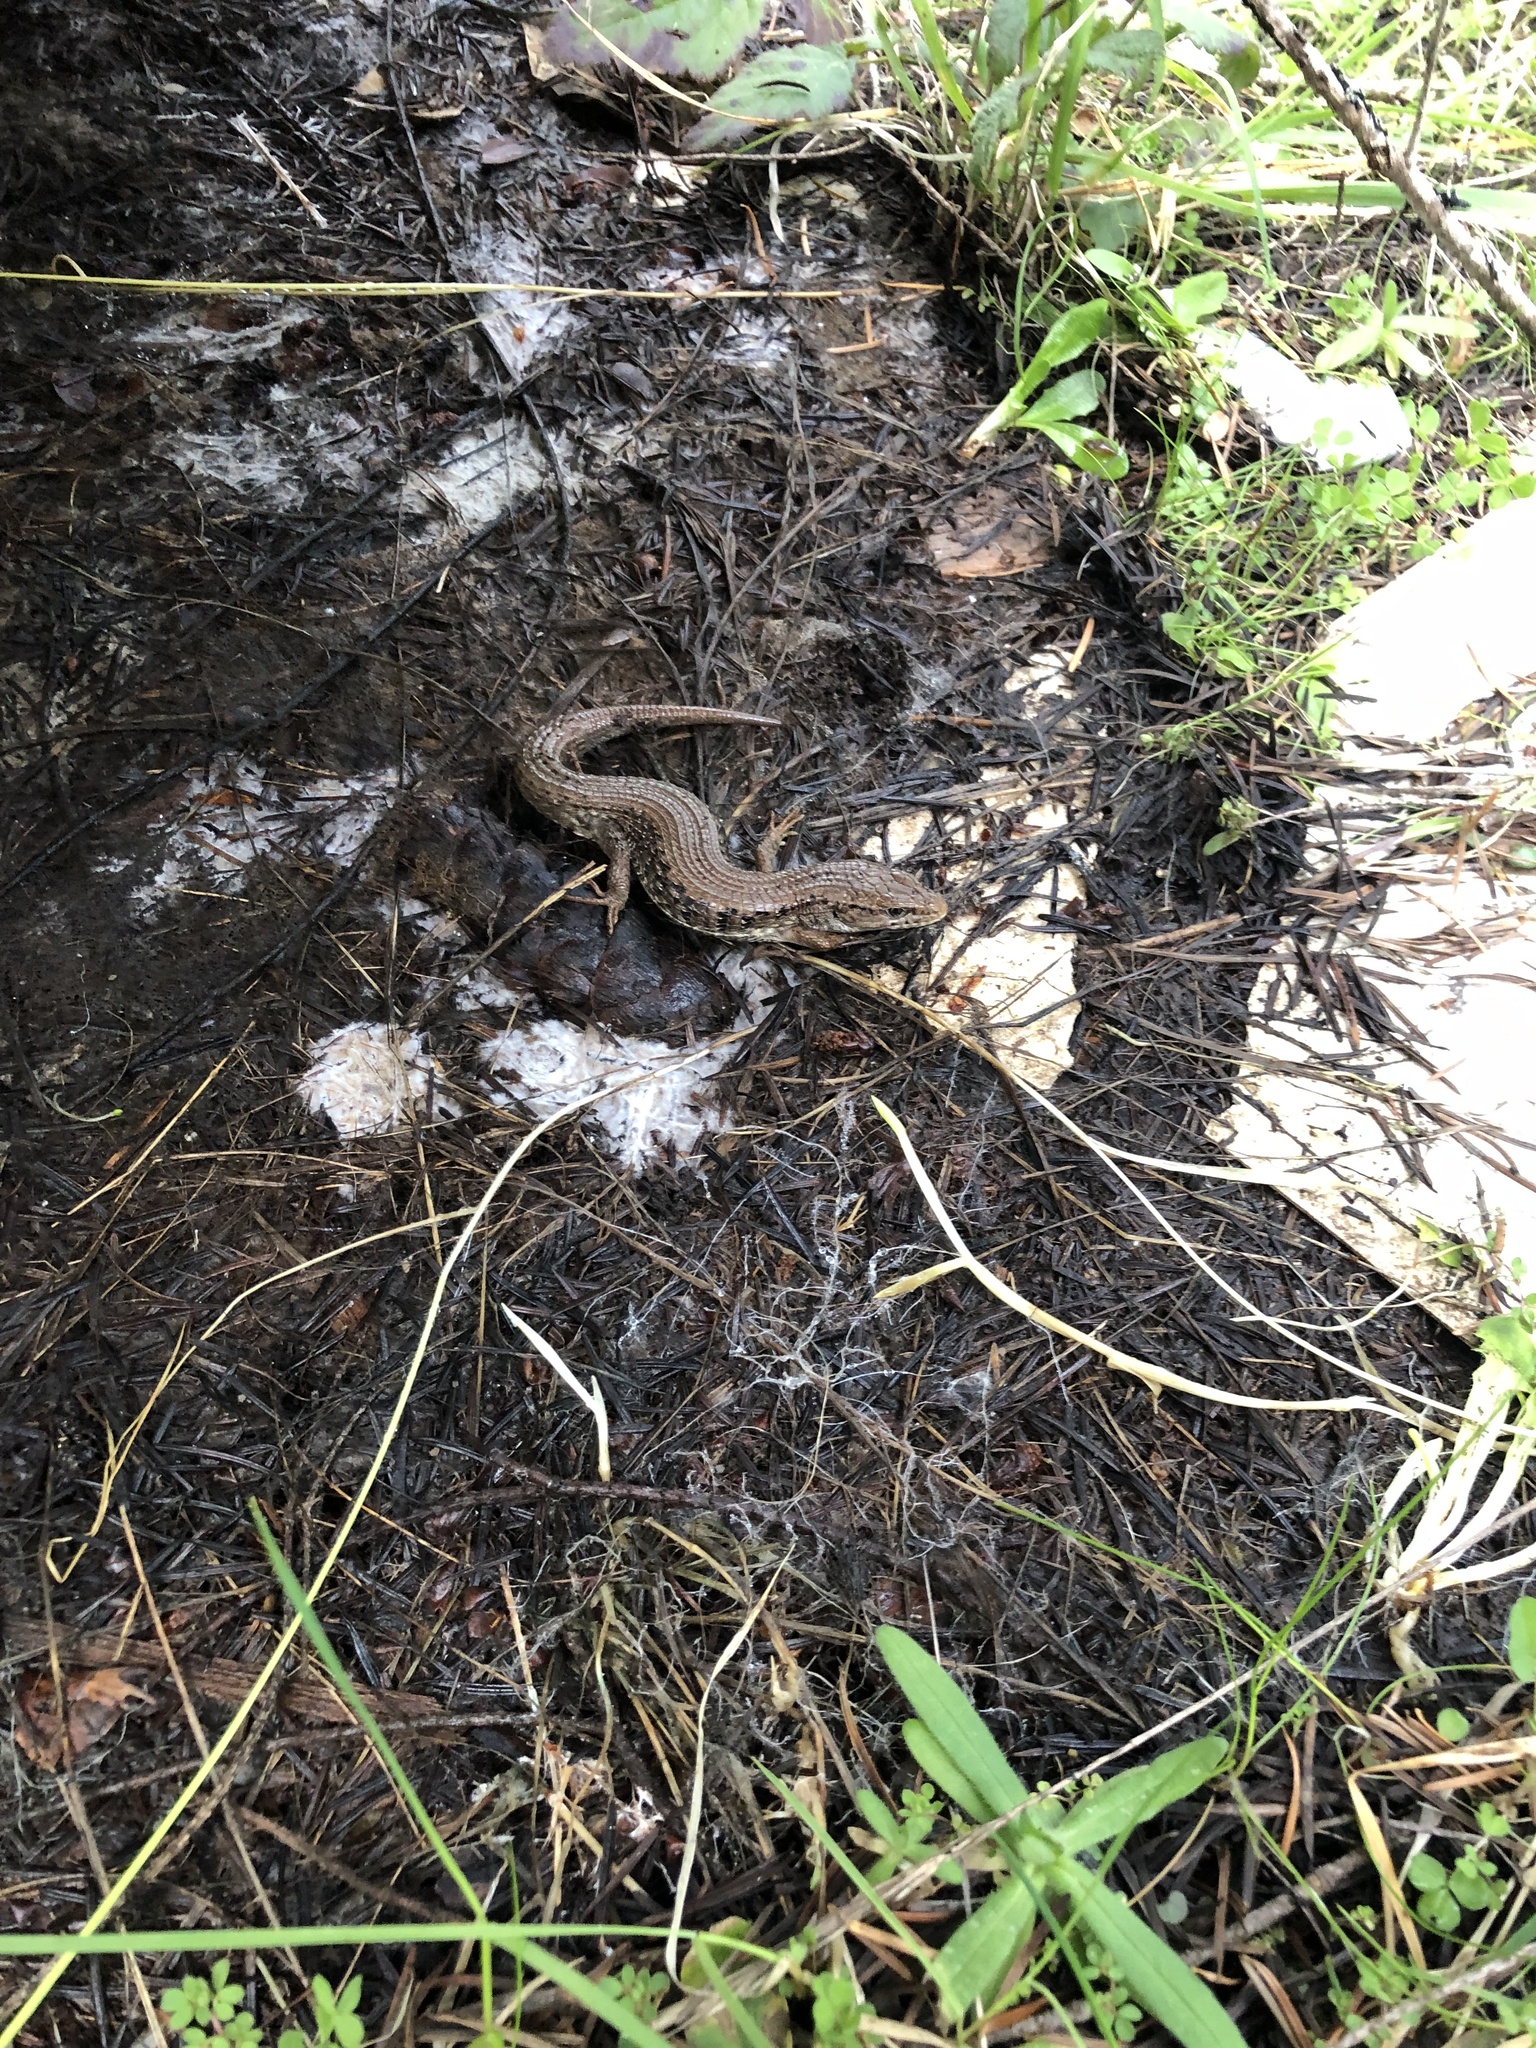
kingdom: Animalia
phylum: Chordata
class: Squamata
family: Anguidae
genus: Elgaria
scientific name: Elgaria coerulea
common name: Northern alligator lizard
